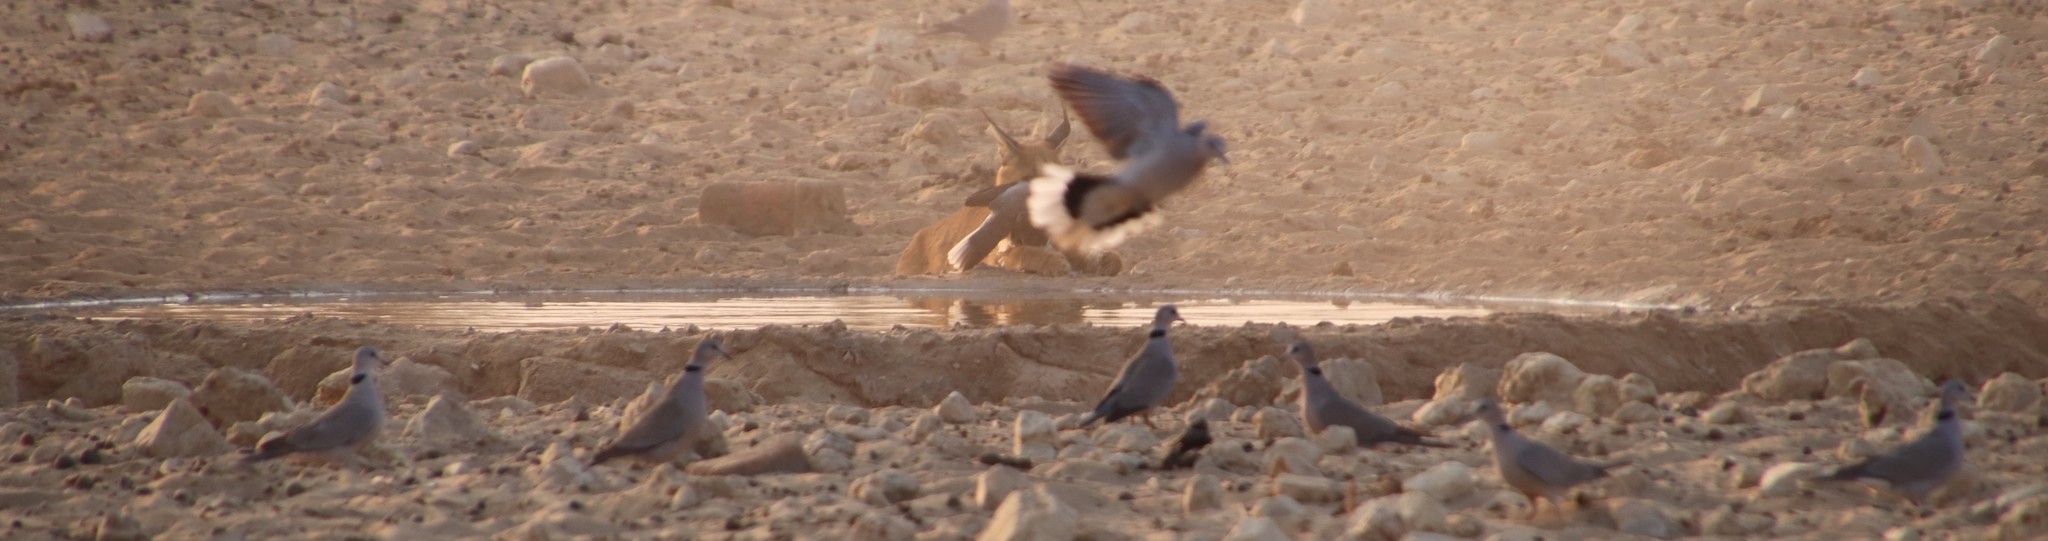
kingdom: Animalia
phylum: Chordata
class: Aves
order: Columbiformes
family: Columbidae
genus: Streptopelia
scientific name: Streptopelia capicola
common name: Ring-necked dove
